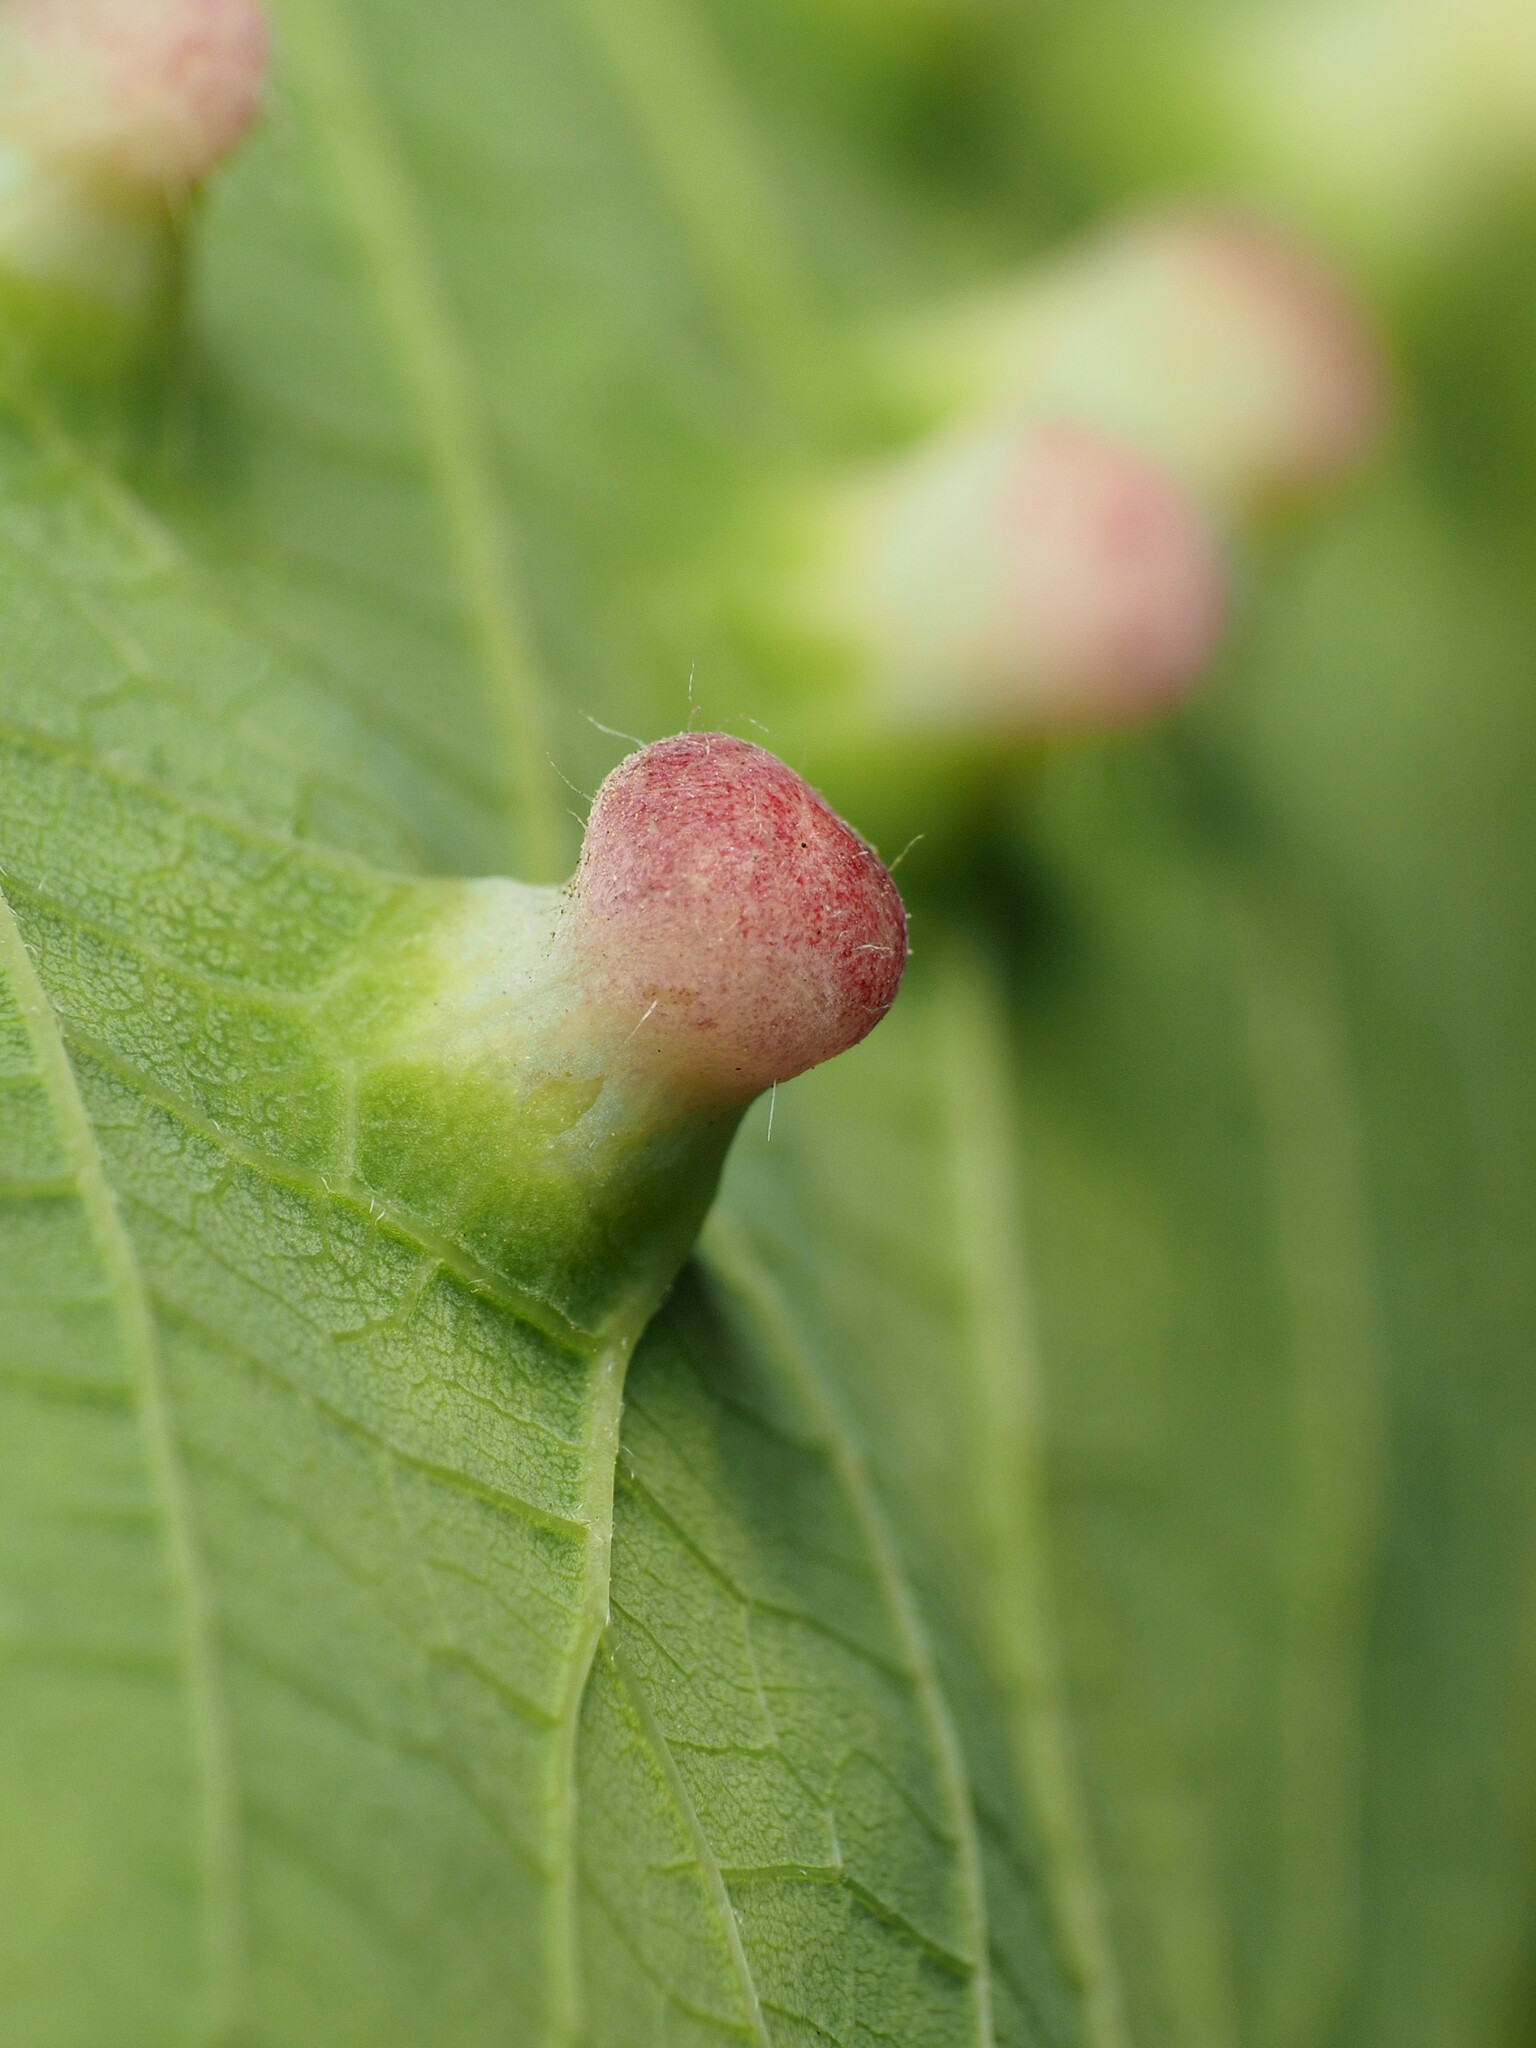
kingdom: Animalia
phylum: Arthropoda
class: Insecta
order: Hemiptera
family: Aphalaridae
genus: Pachypsylla
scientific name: Pachypsylla celtidismamma
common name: Hackberry nipplegall psyllid
